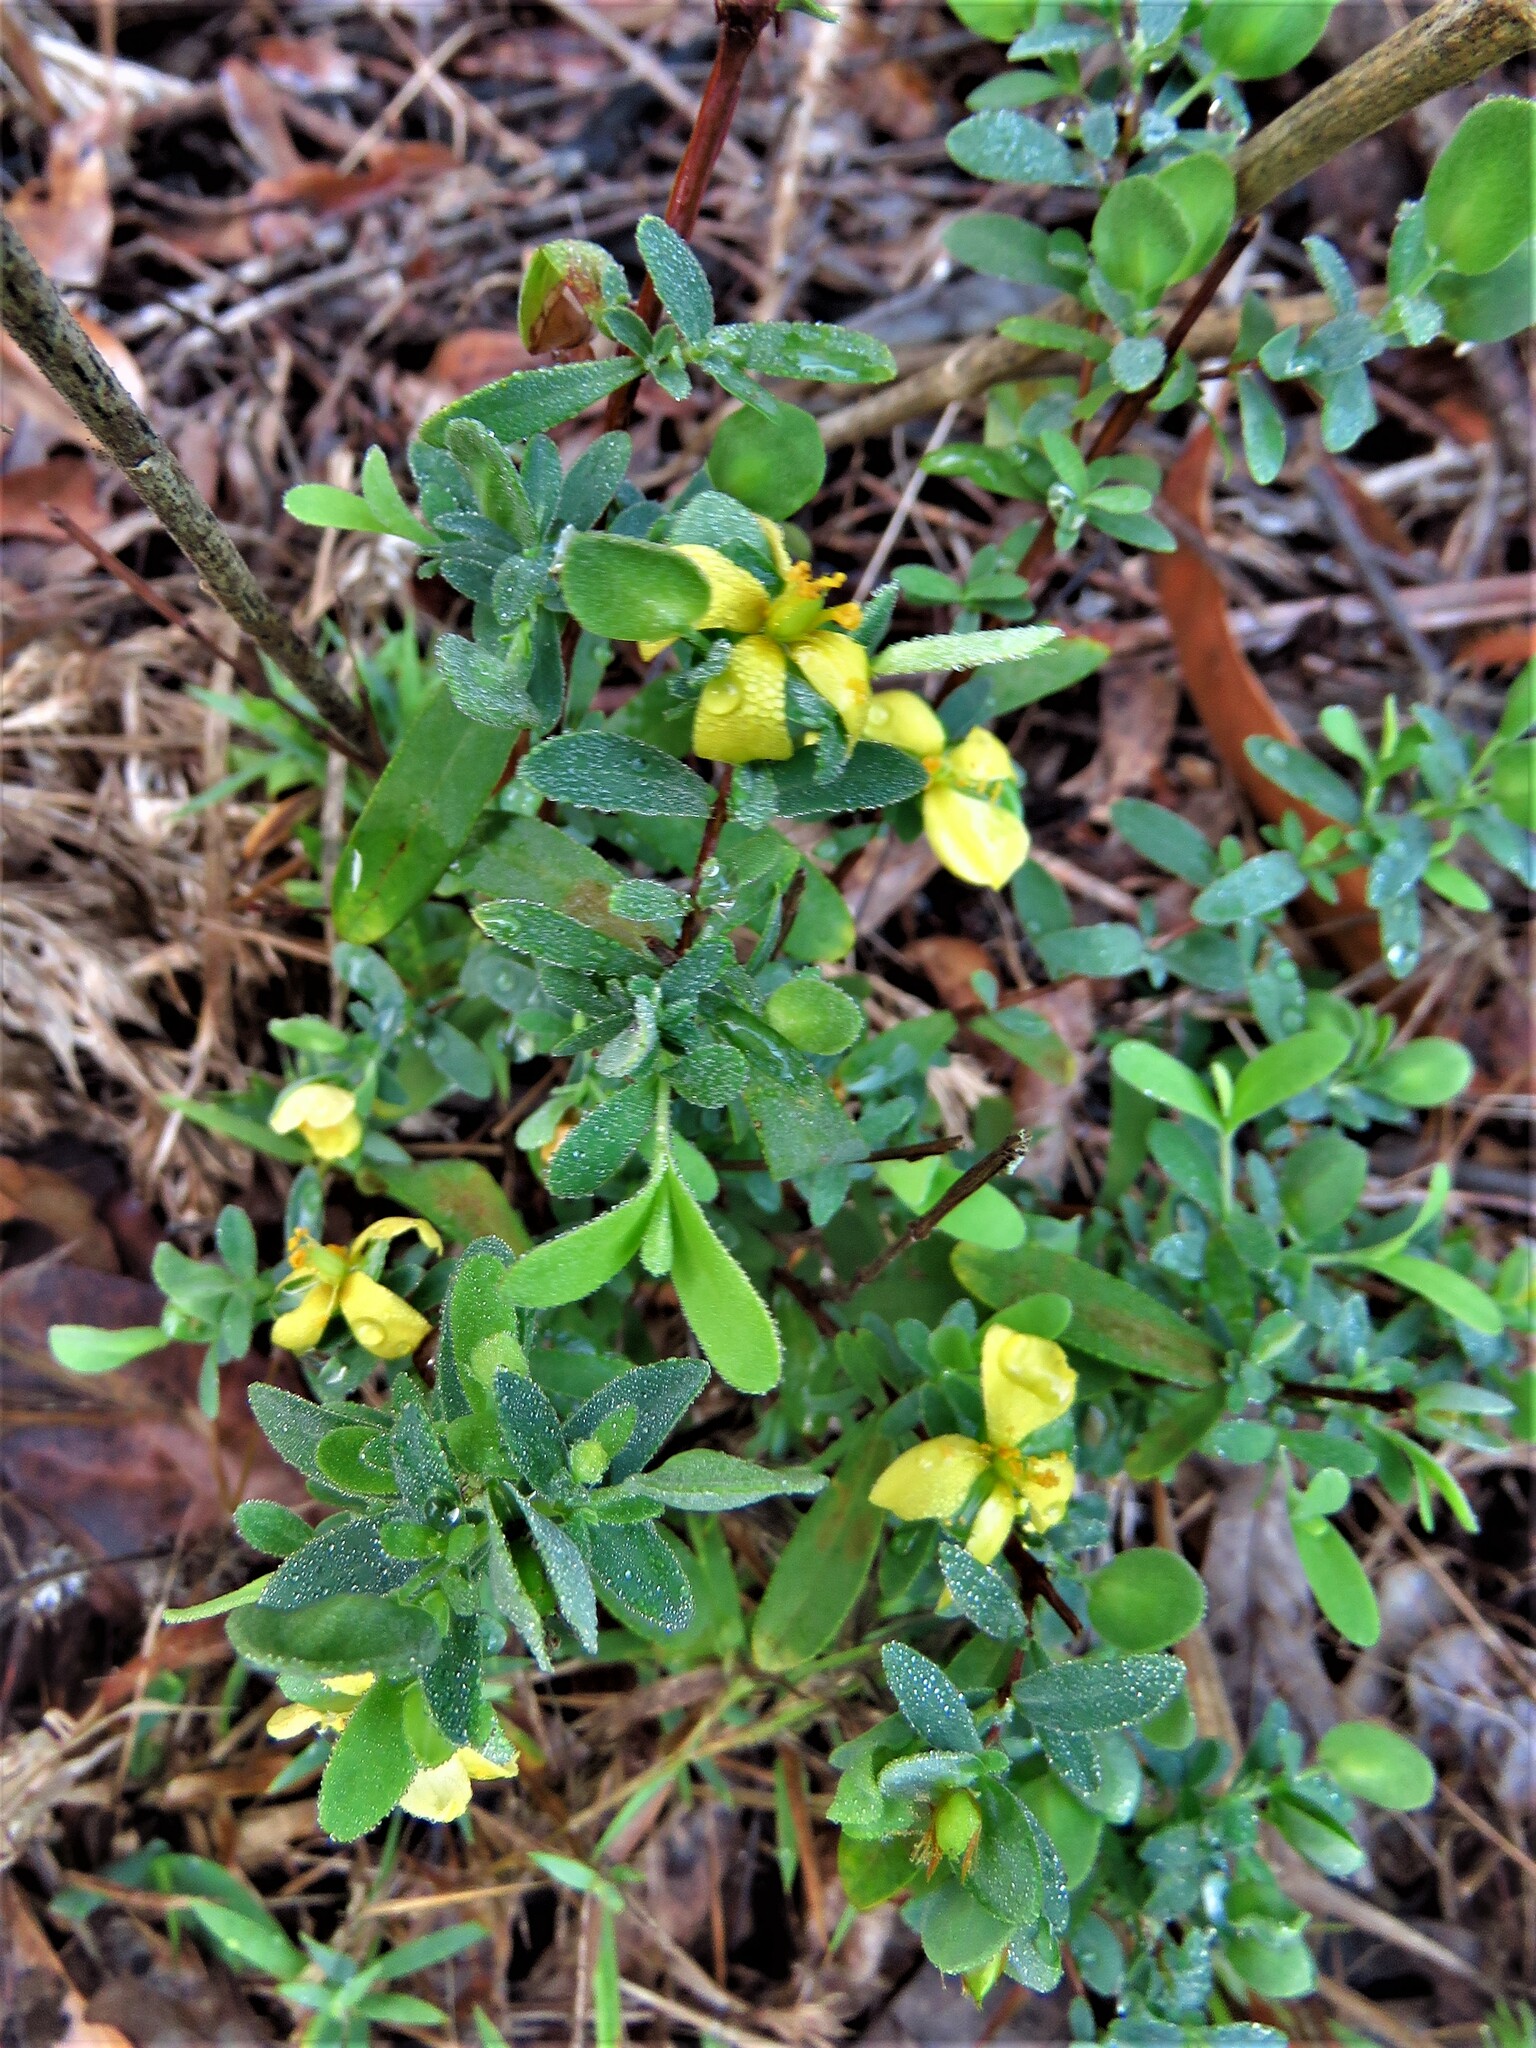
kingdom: Plantae
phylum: Tracheophyta
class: Magnoliopsida
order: Malpighiales
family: Hypericaceae
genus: Hypericum
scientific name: Hypericum hypericoides
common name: St. andrew's cross
